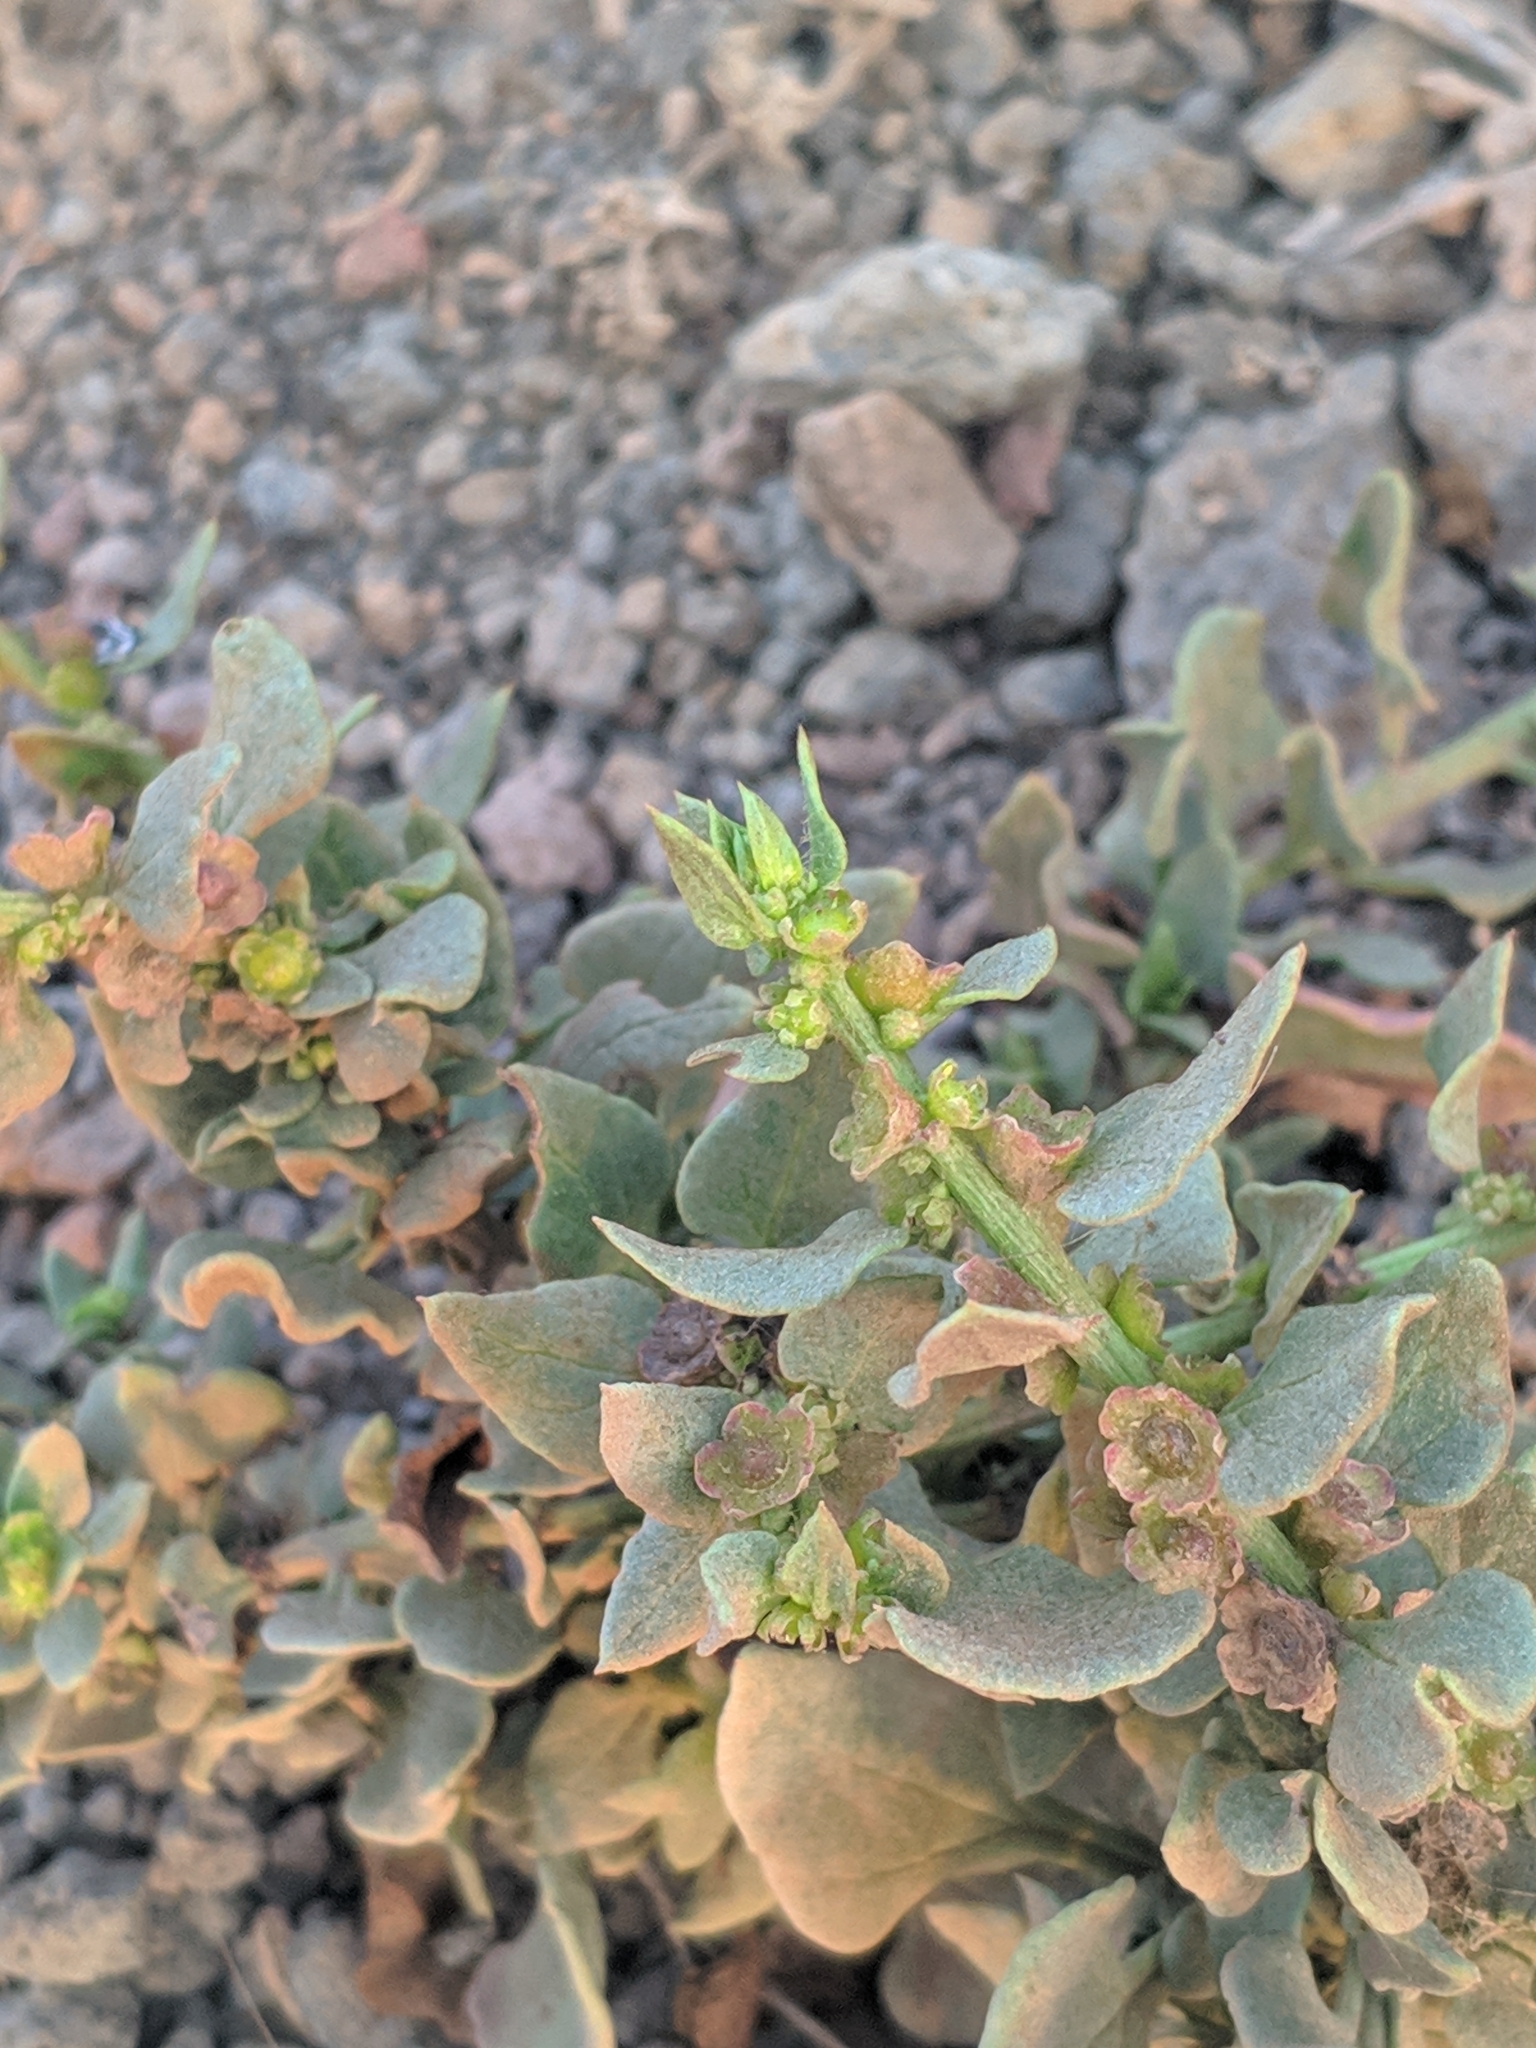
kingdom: Plantae
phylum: Tracheophyta
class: Magnoliopsida
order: Caryophyllales
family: Amaranthaceae
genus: Patellifolia
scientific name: Patellifolia procumbens
